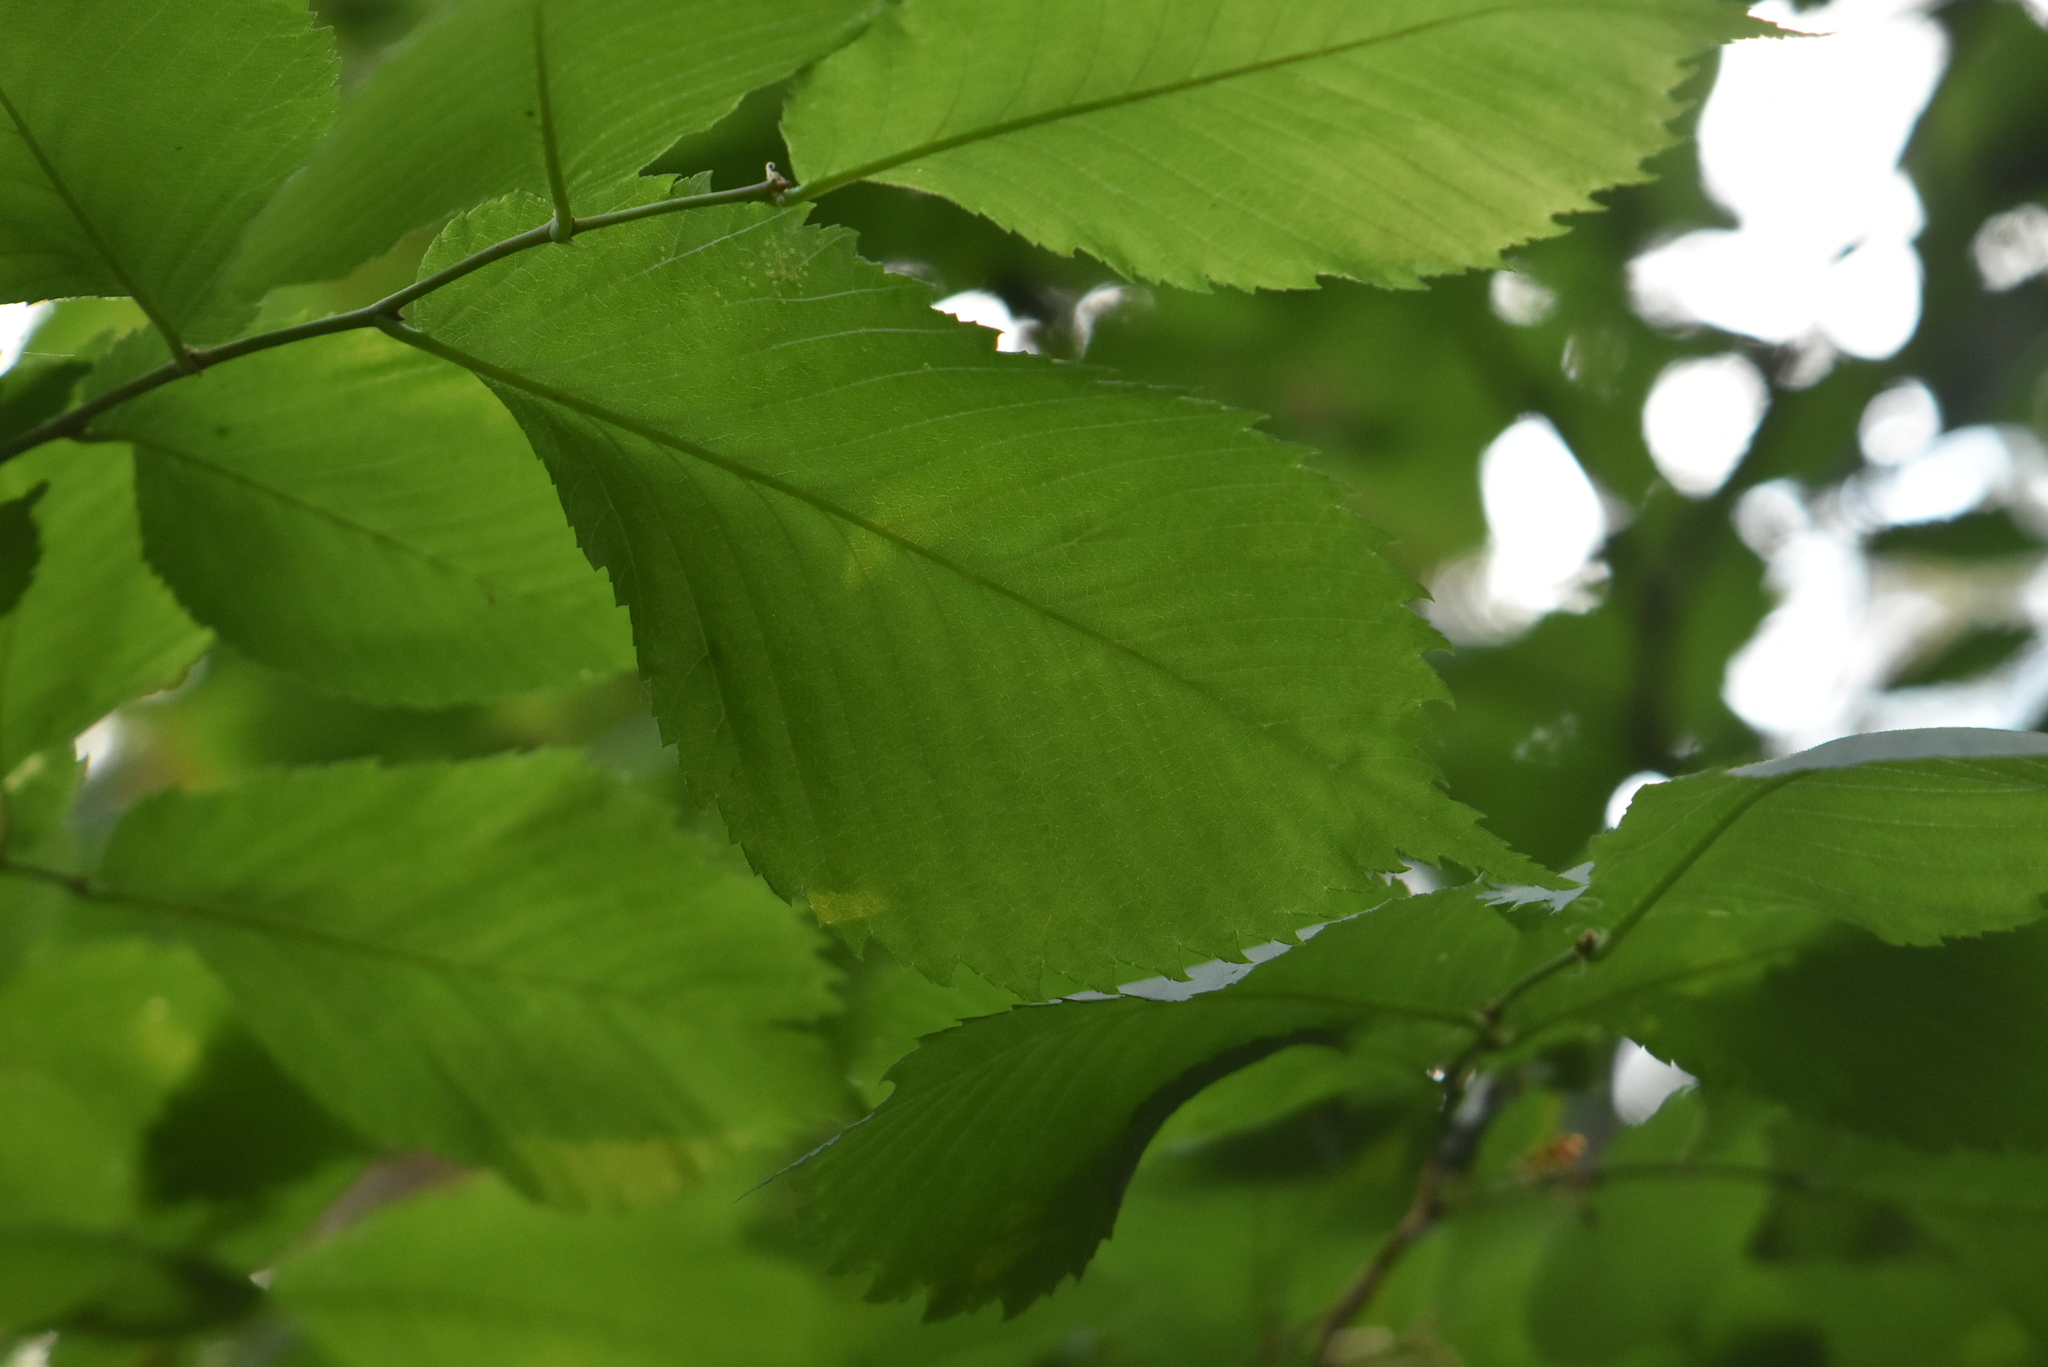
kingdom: Plantae
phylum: Tracheophyta
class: Magnoliopsida
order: Rosales
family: Ulmaceae
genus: Ulmus
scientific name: Ulmus laevis
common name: European white-elm
